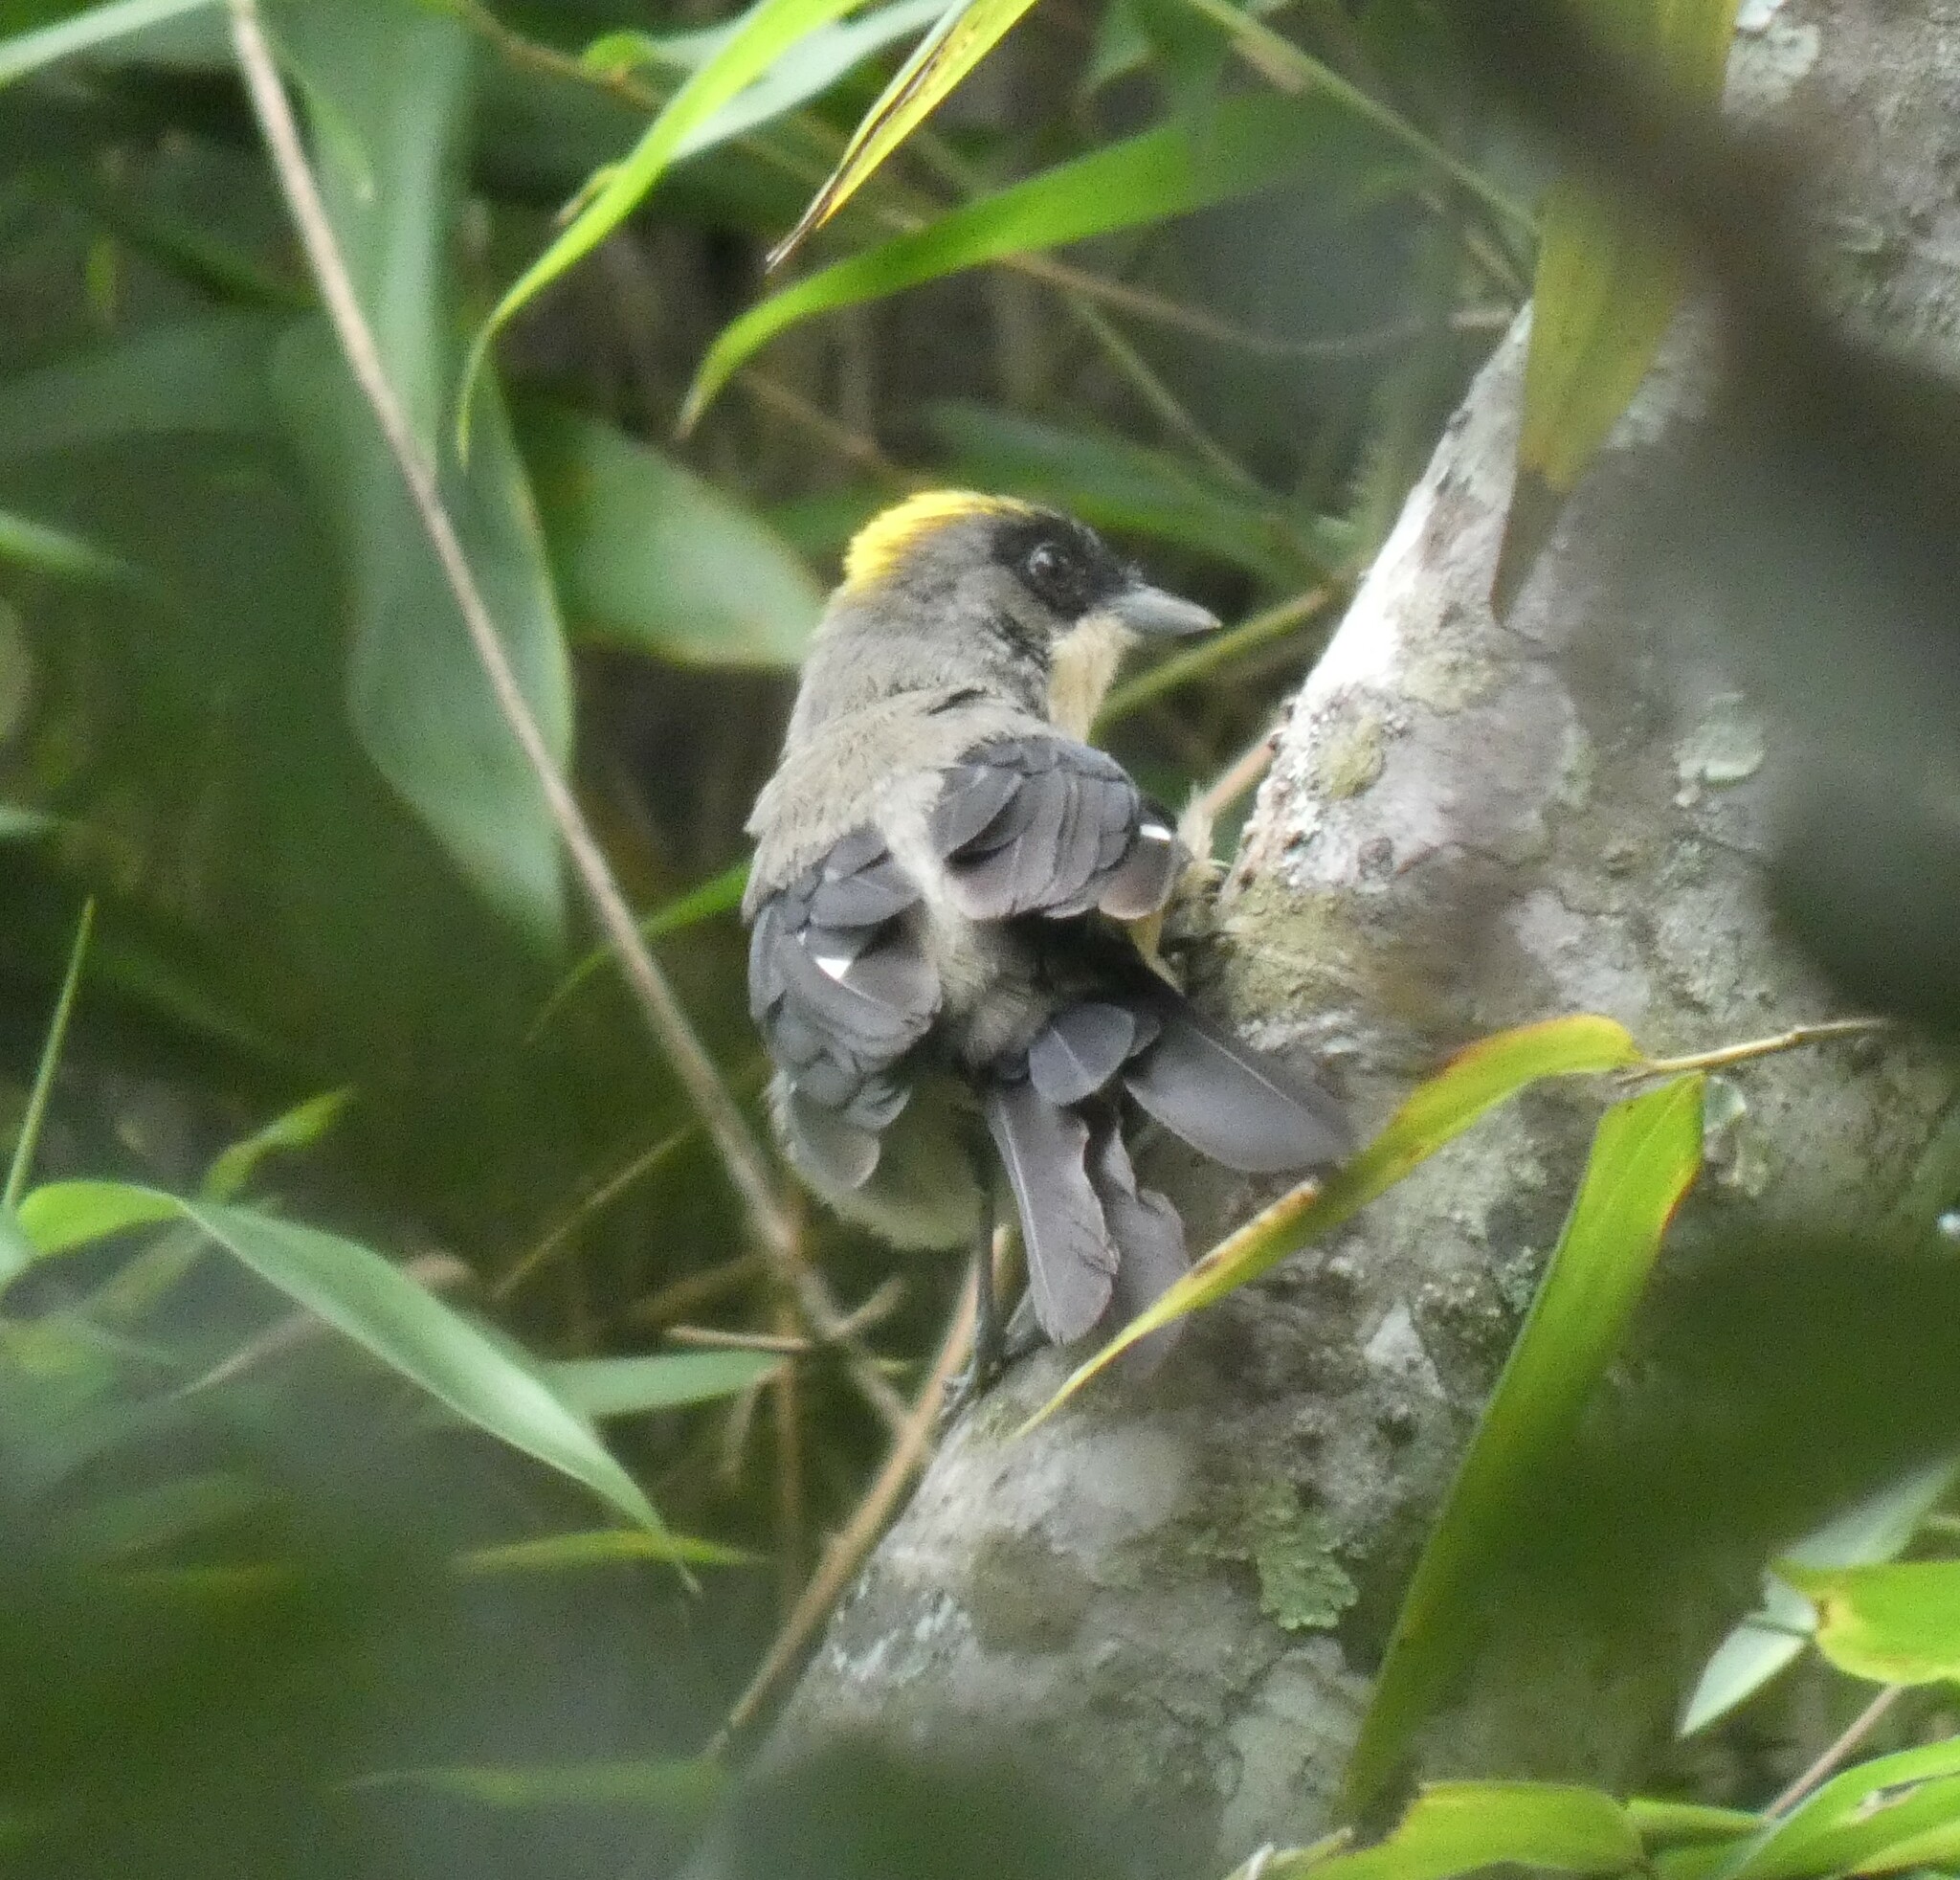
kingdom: Animalia
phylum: Chordata
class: Aves
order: Passeriformes
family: Thraupidae
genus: Trichothraupis
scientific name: Trichothraupis melanops
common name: Black-goggled tanager
